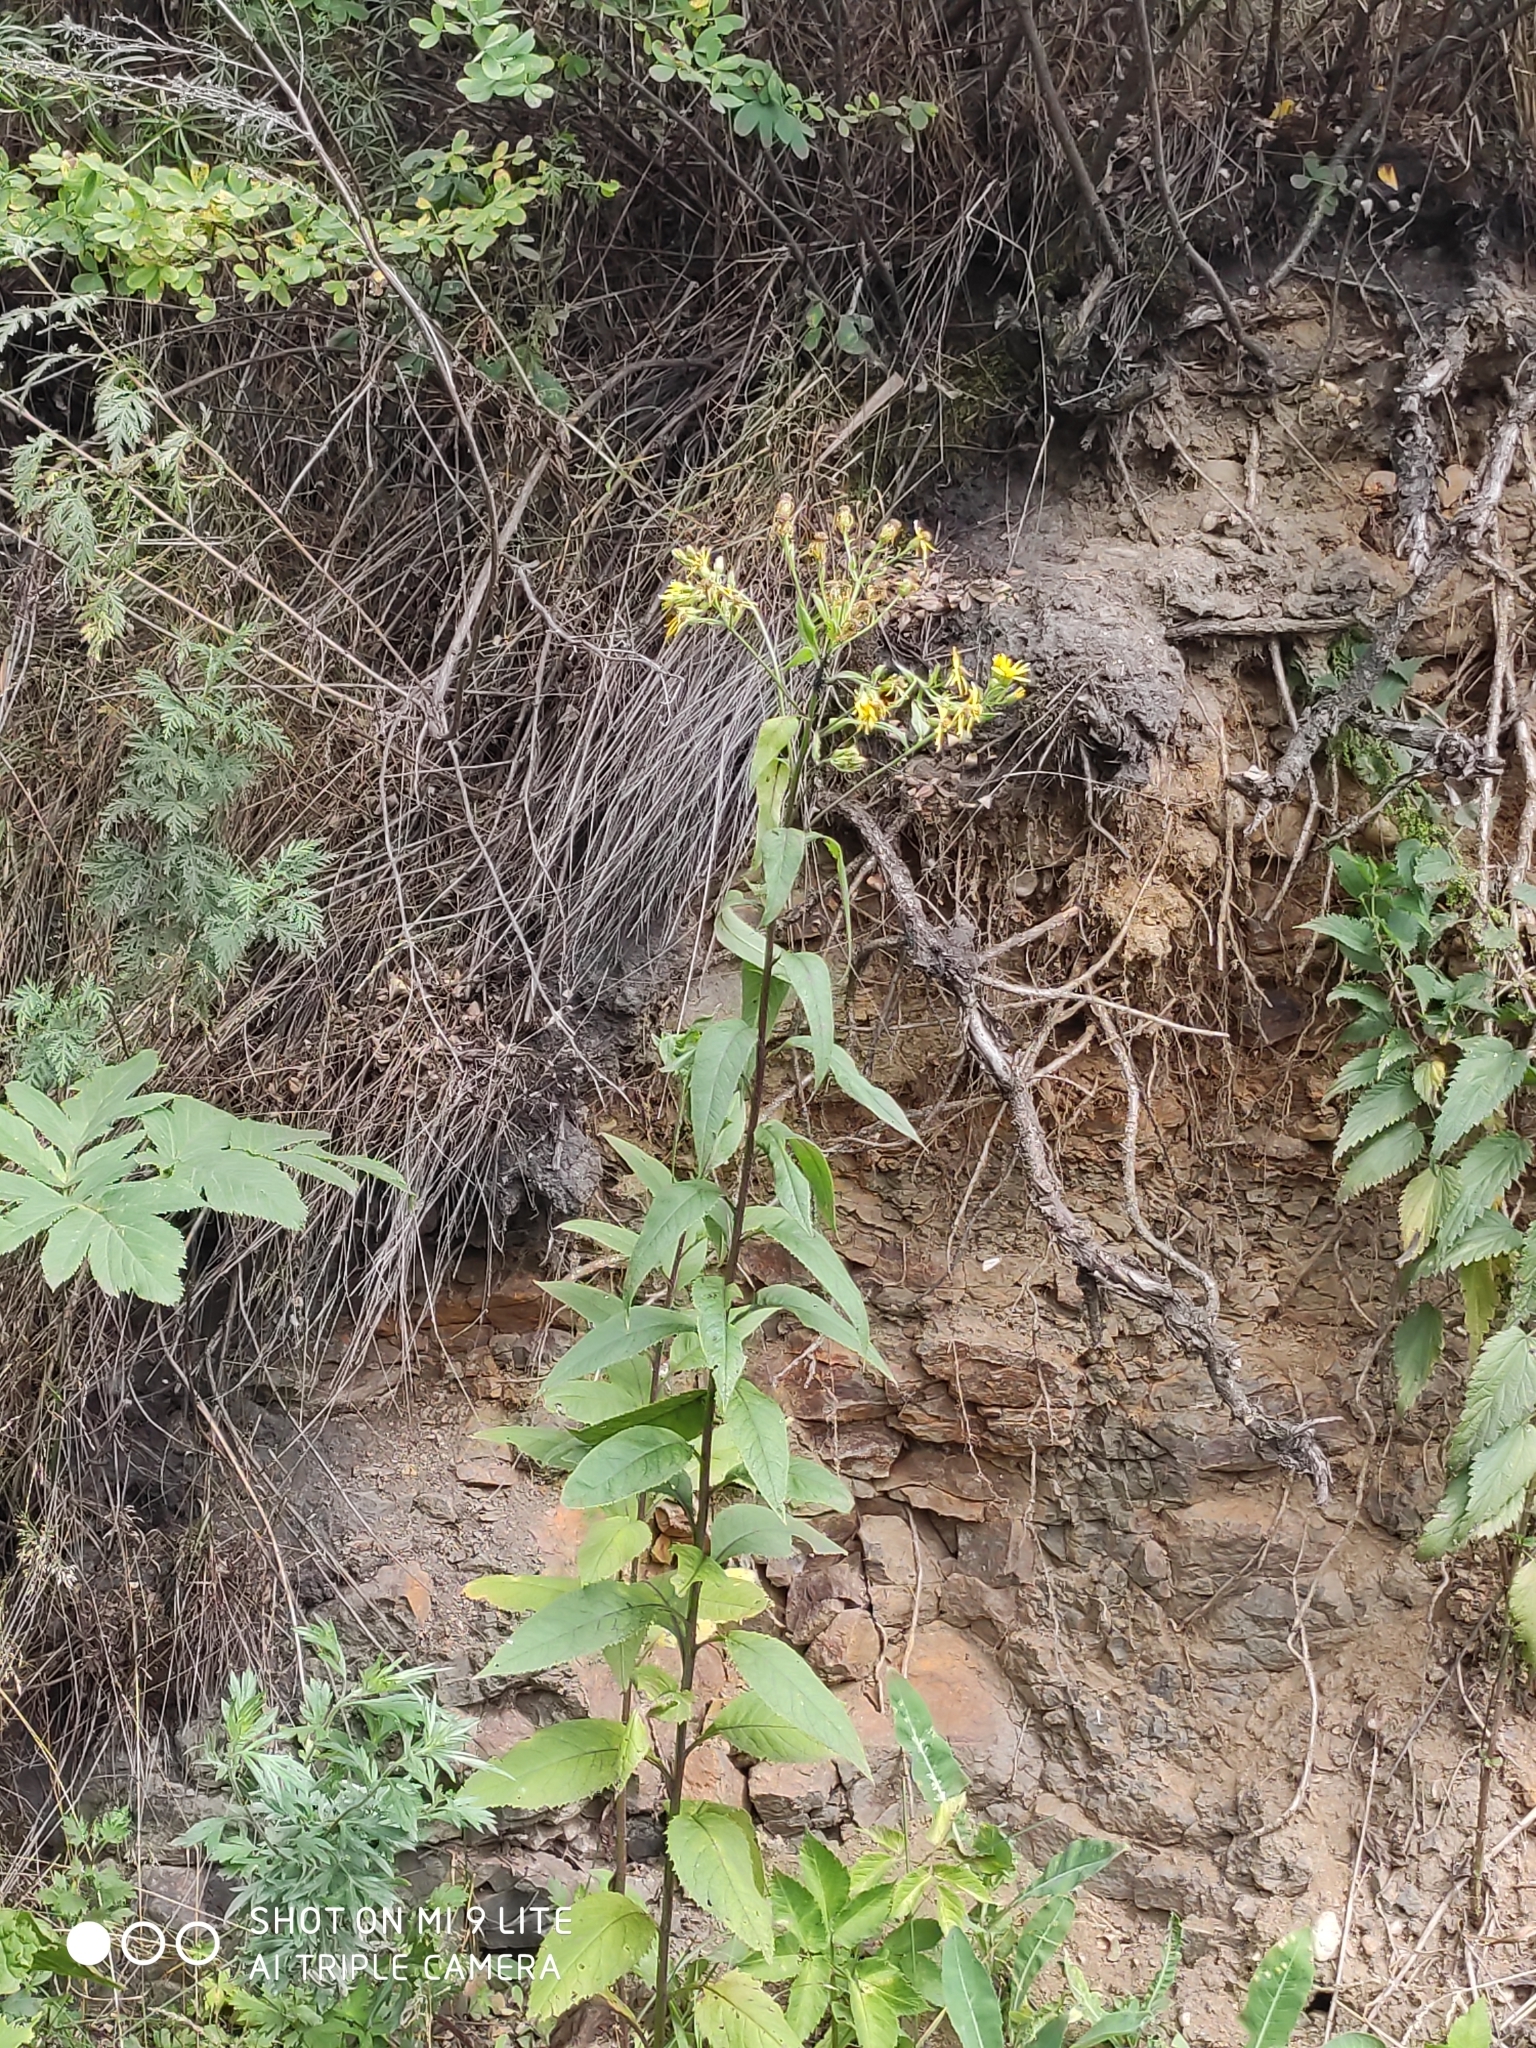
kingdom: Plantae
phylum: Tracheophyta
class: Magnoliopsida
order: Asterales
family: Asteraceae
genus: Senecio
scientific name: Senecio nemorensis
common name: Alpine ragwort
